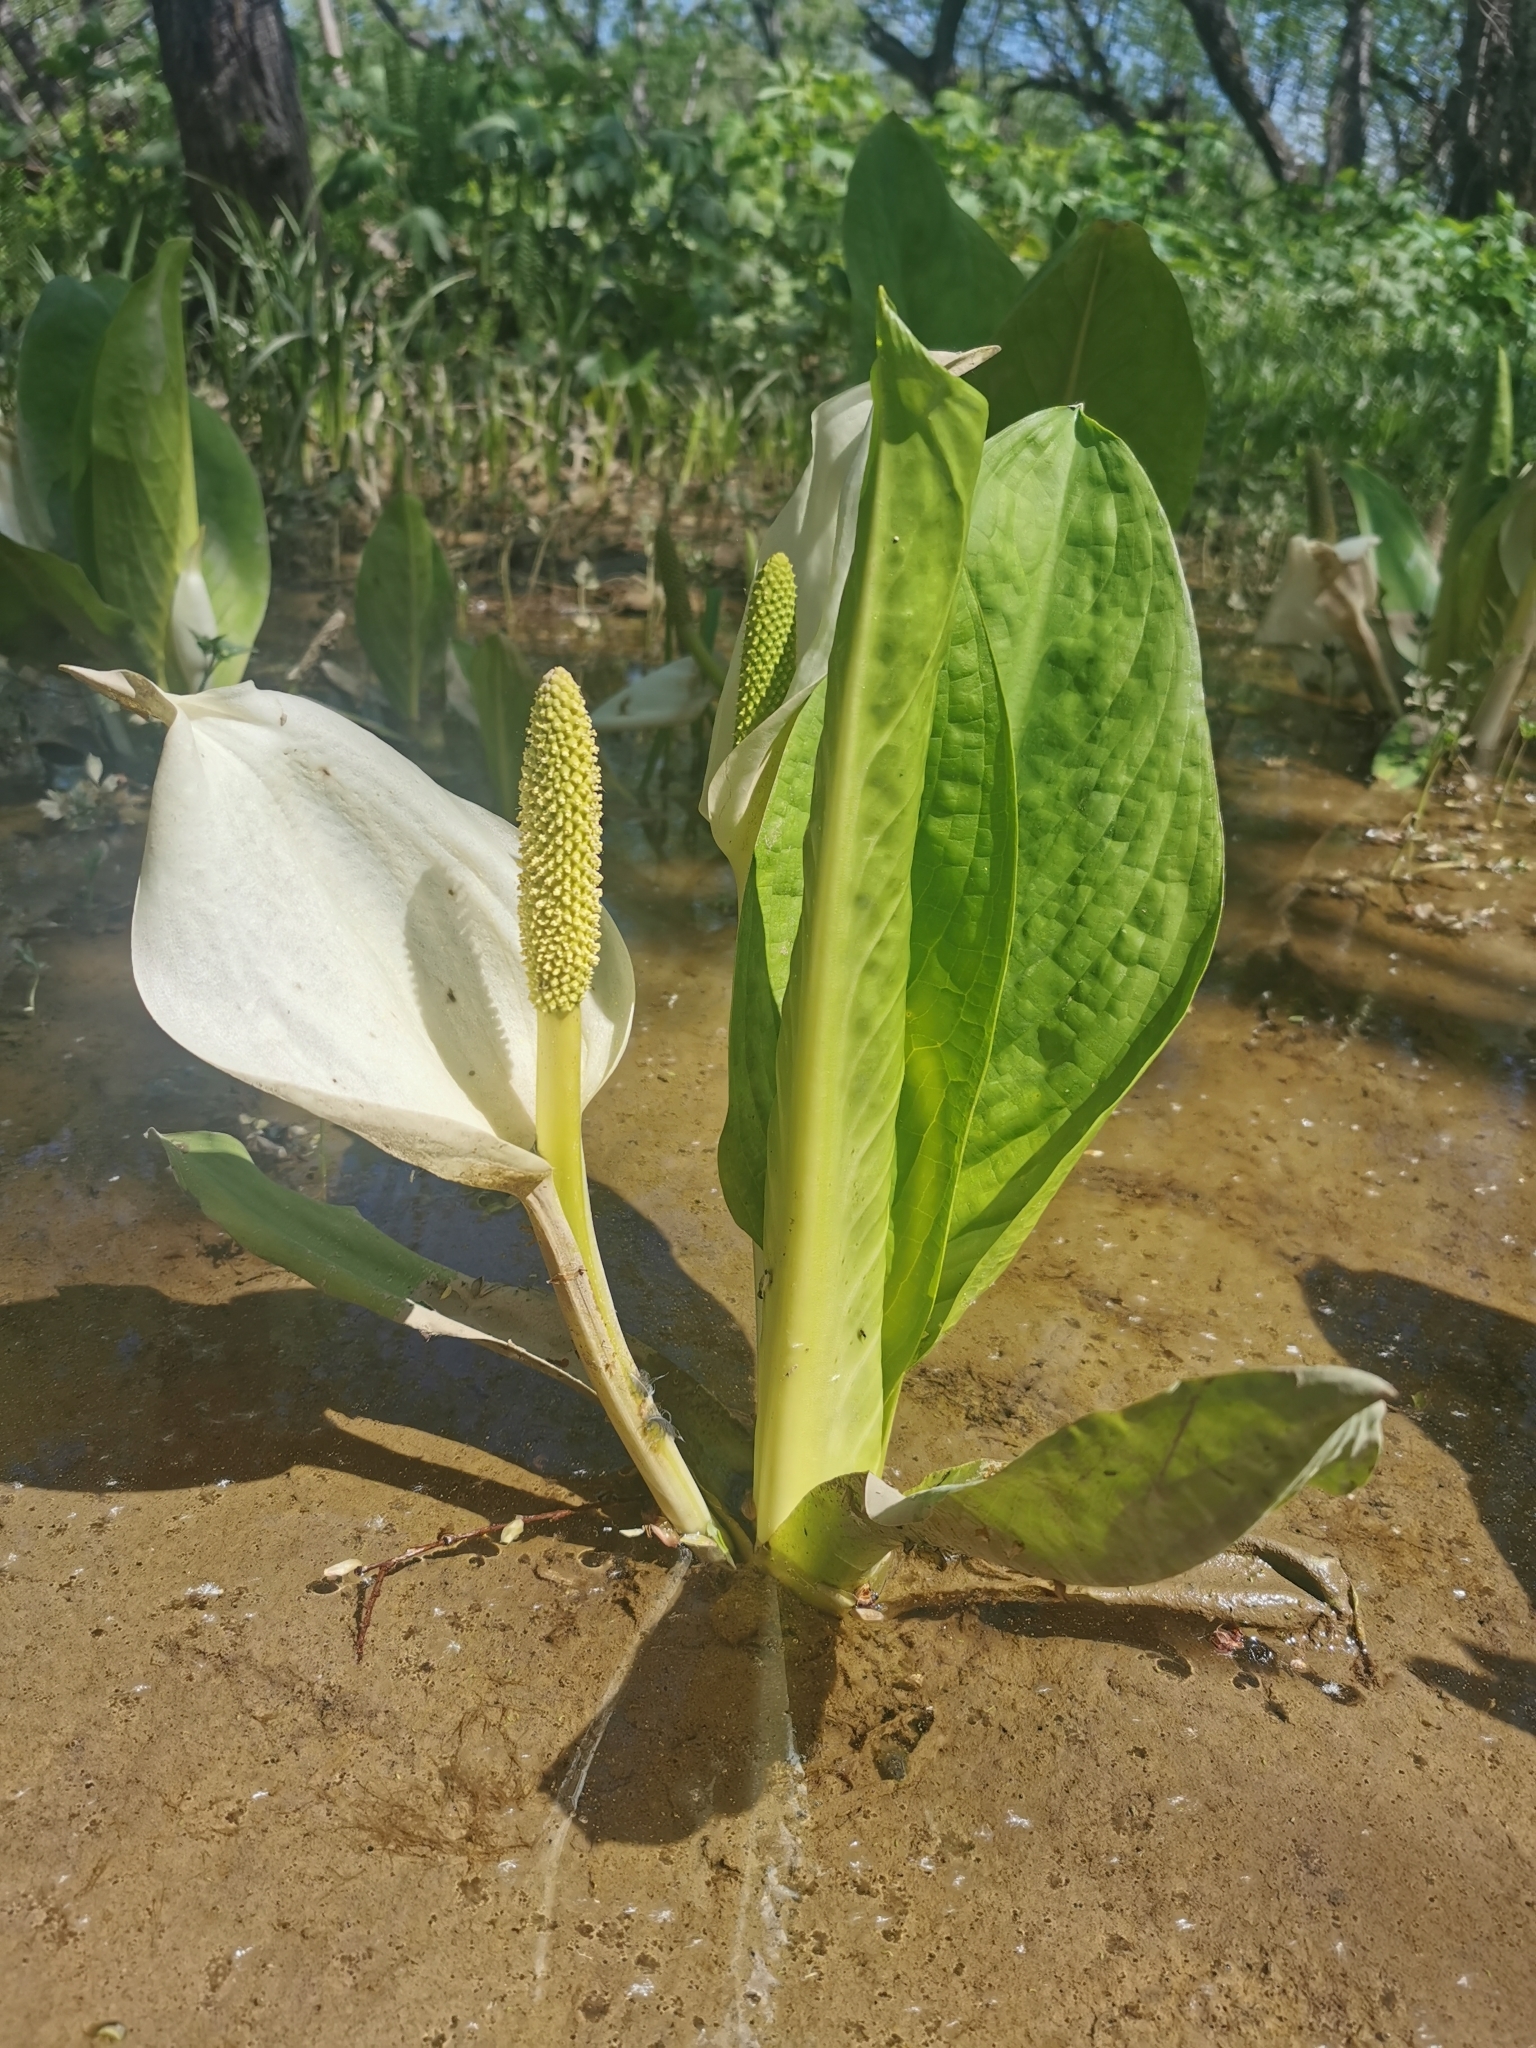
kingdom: Plantae
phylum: Tracheophyta
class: Liliopsida
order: Alismatales
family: Araceae
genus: Lysichiton
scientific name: Lysichiton camtschatcensis
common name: Asian skunk-cabbage
